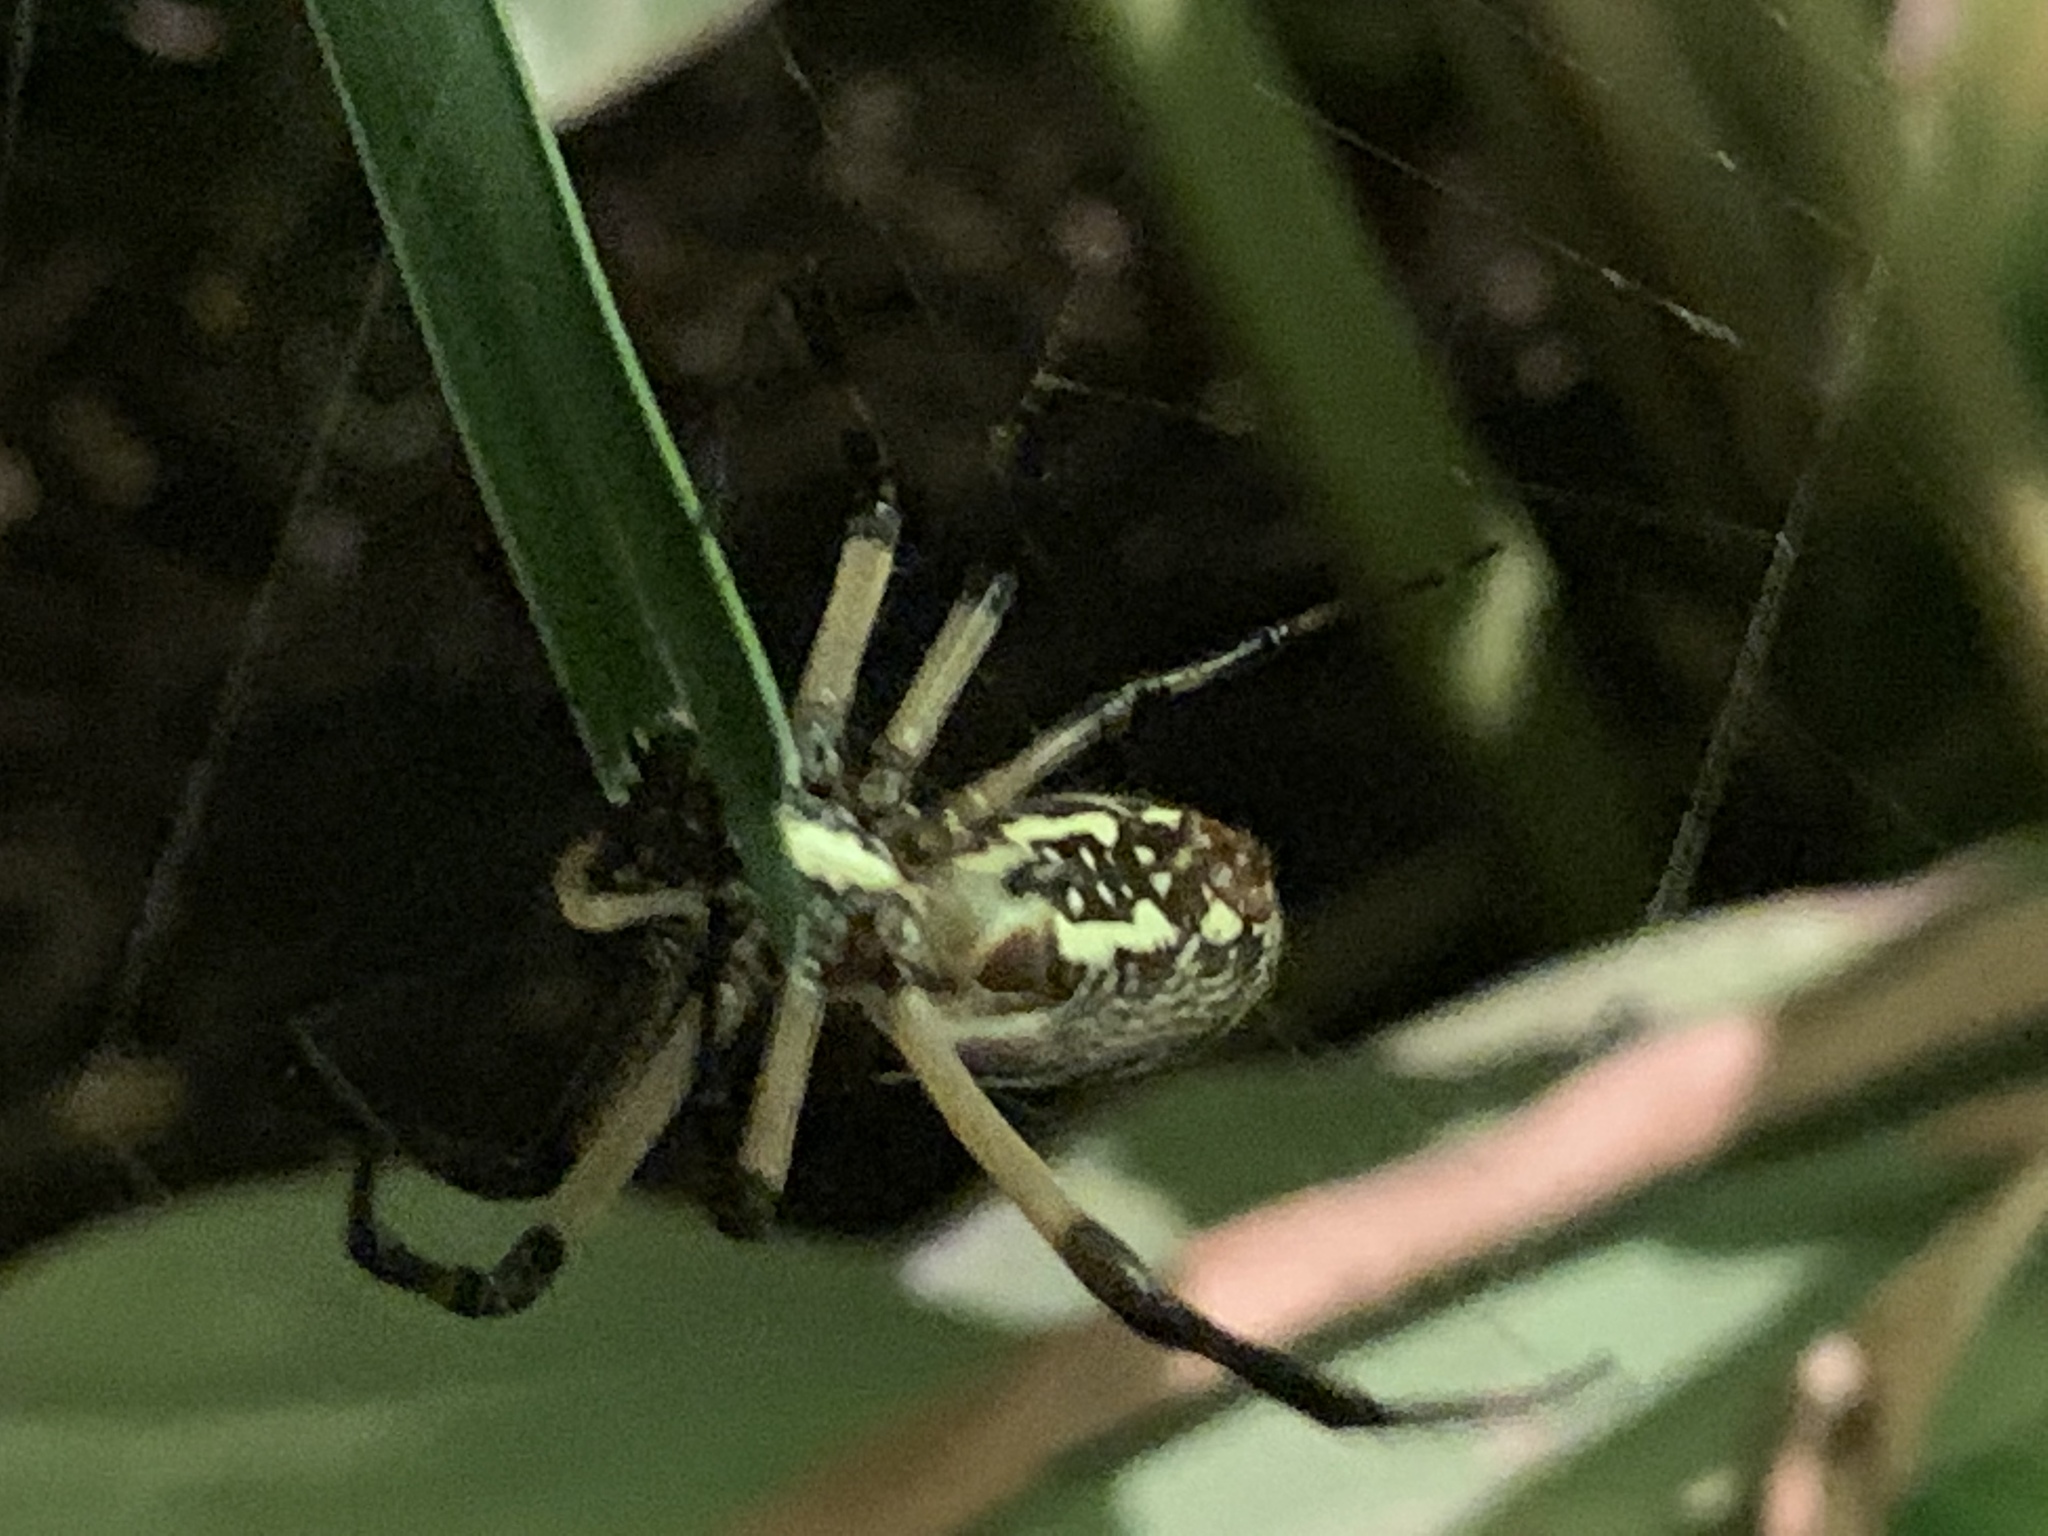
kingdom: Animalia
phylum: Arthropoda
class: Arachnida
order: Araneae
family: Araneidae
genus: Argiope
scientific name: Argiope aurantia
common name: Orb weavers
